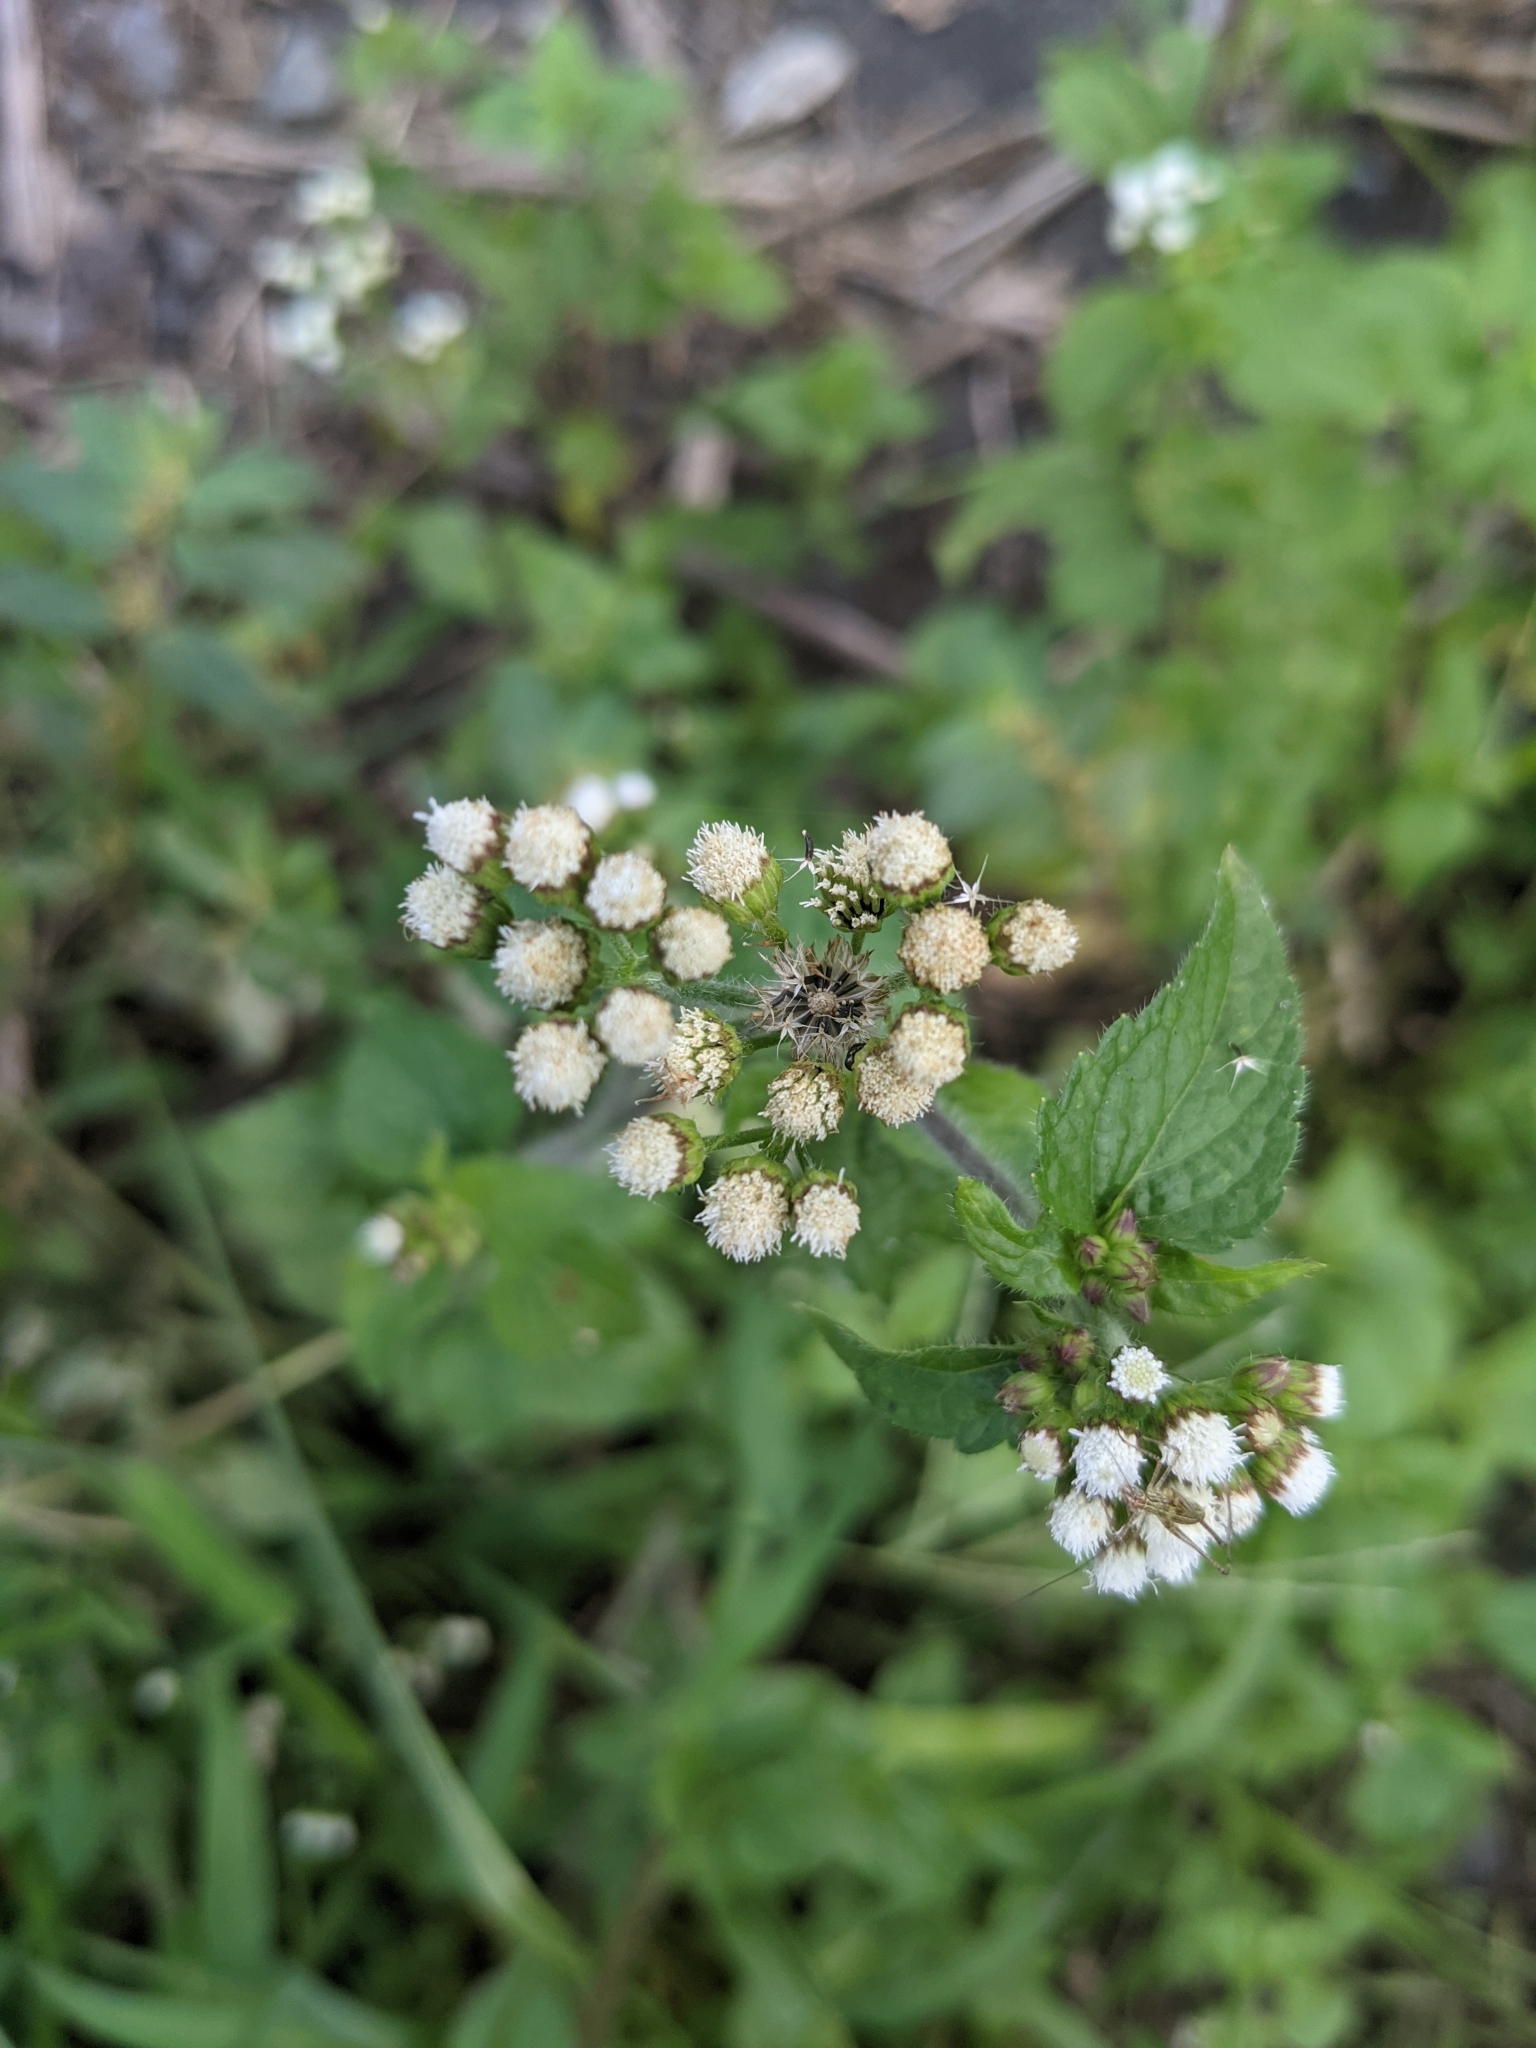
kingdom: Plantae
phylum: Tracheophyta
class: Magnoliopsida
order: Asterales
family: Asteraceae
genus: Ageratum
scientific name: Ageratum conyzoides
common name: Tropical whiteweed
